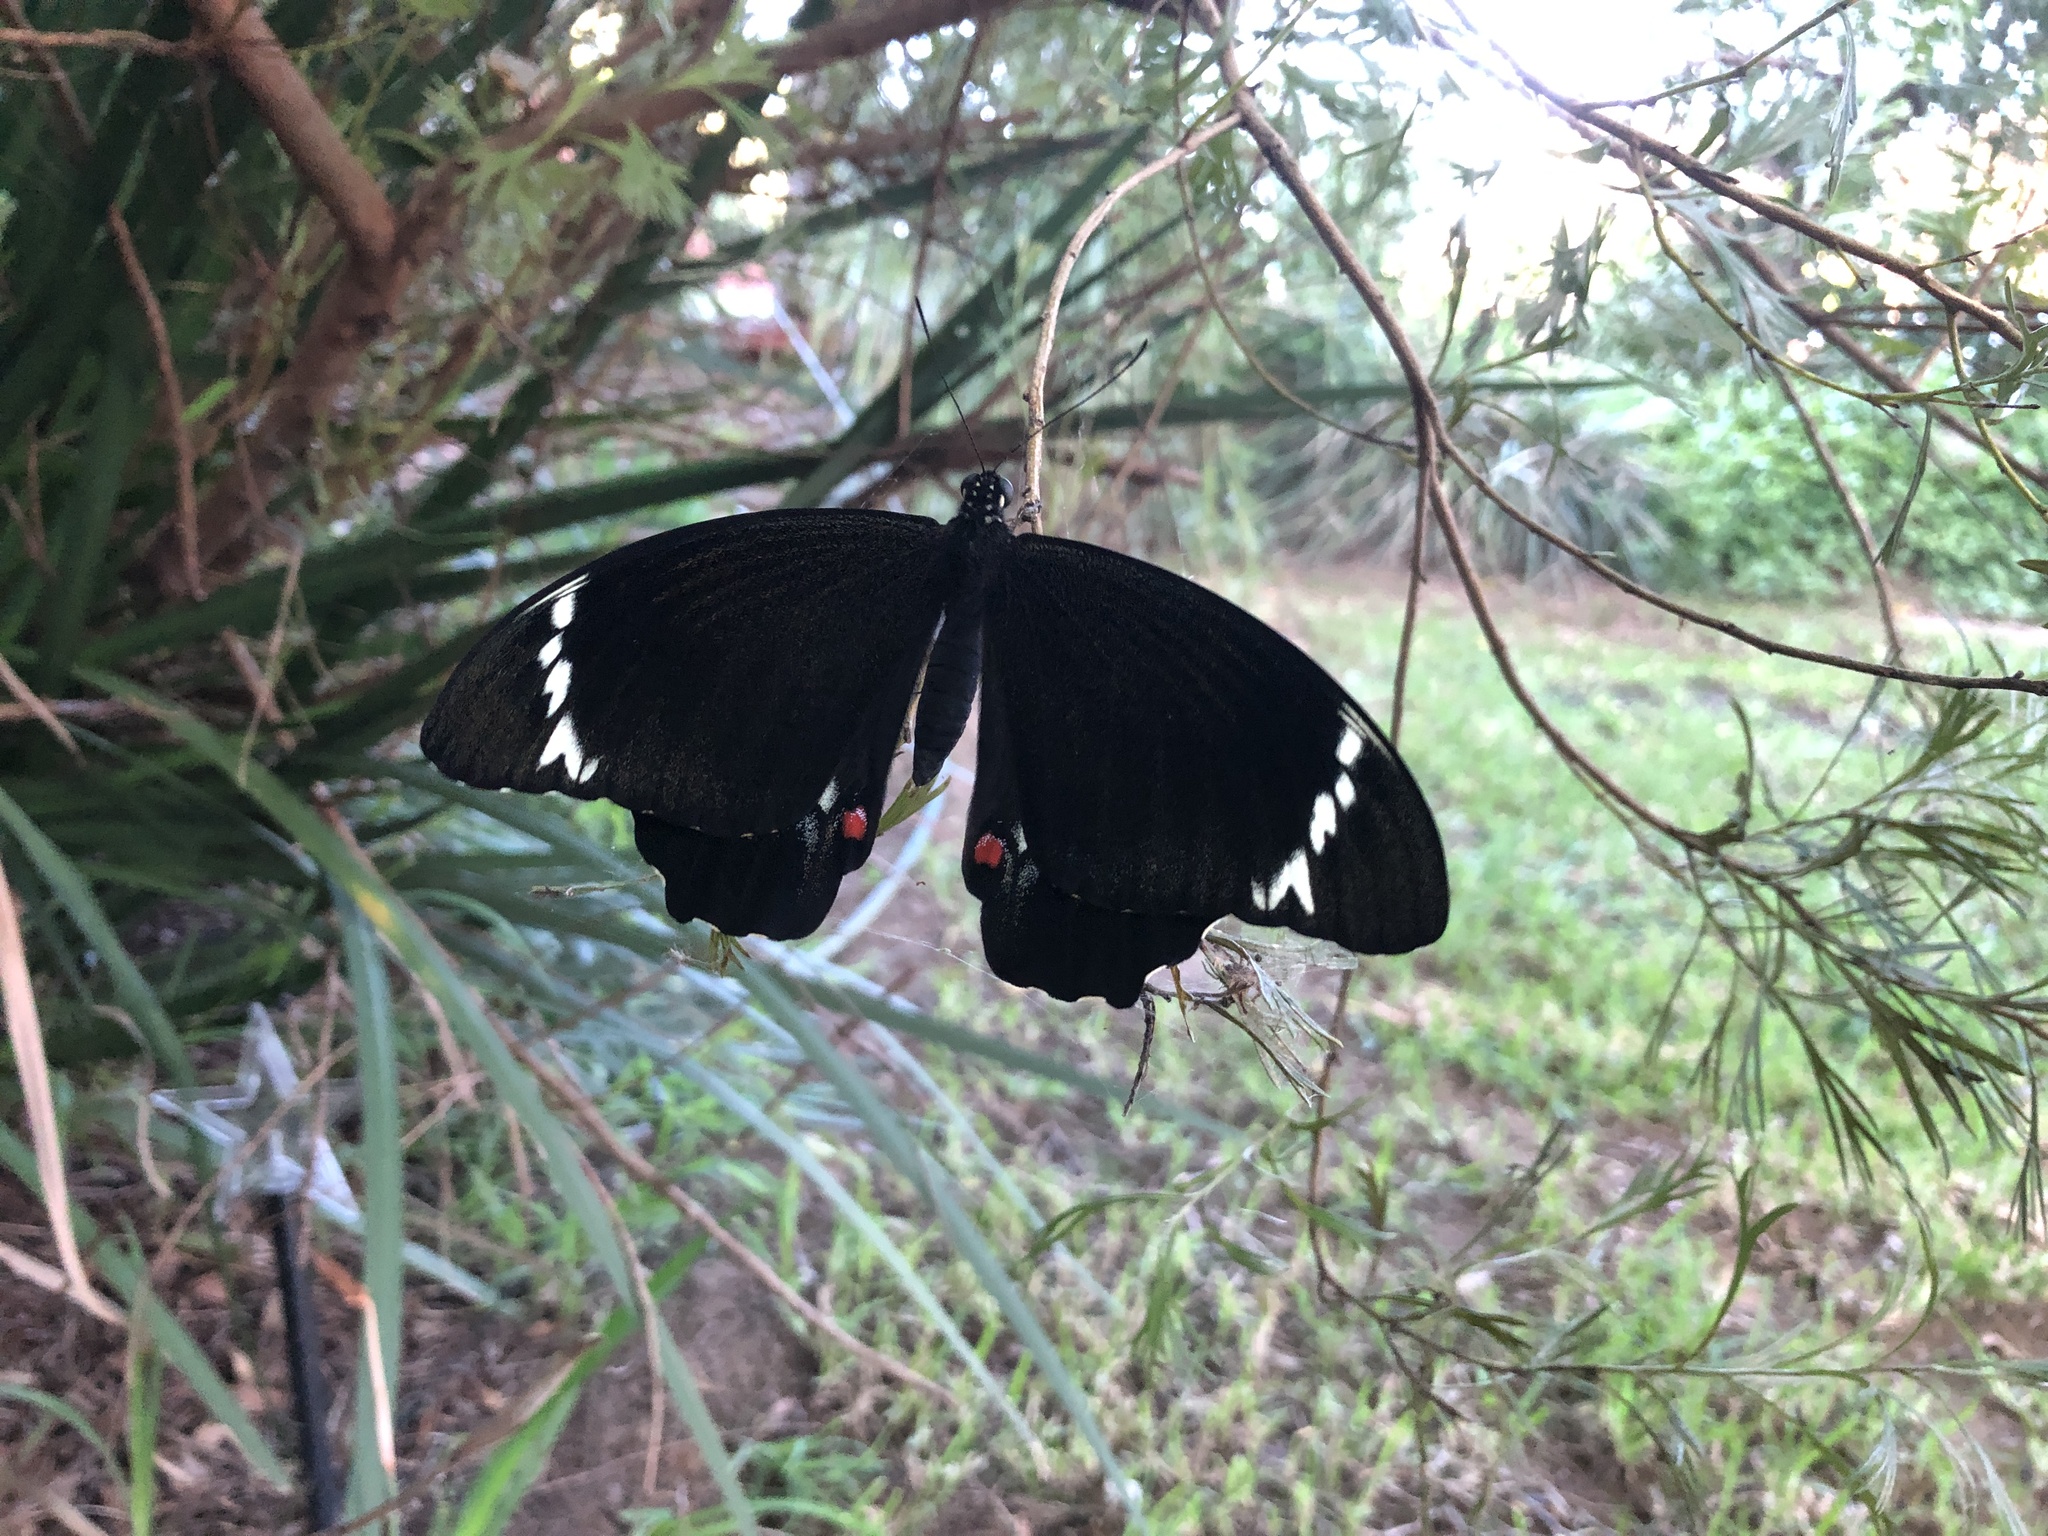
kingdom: Animalia
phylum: Arthropoda
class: Insecta
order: Lepidoptera
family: Papilionidae
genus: Papilio
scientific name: Papilio aegeus
